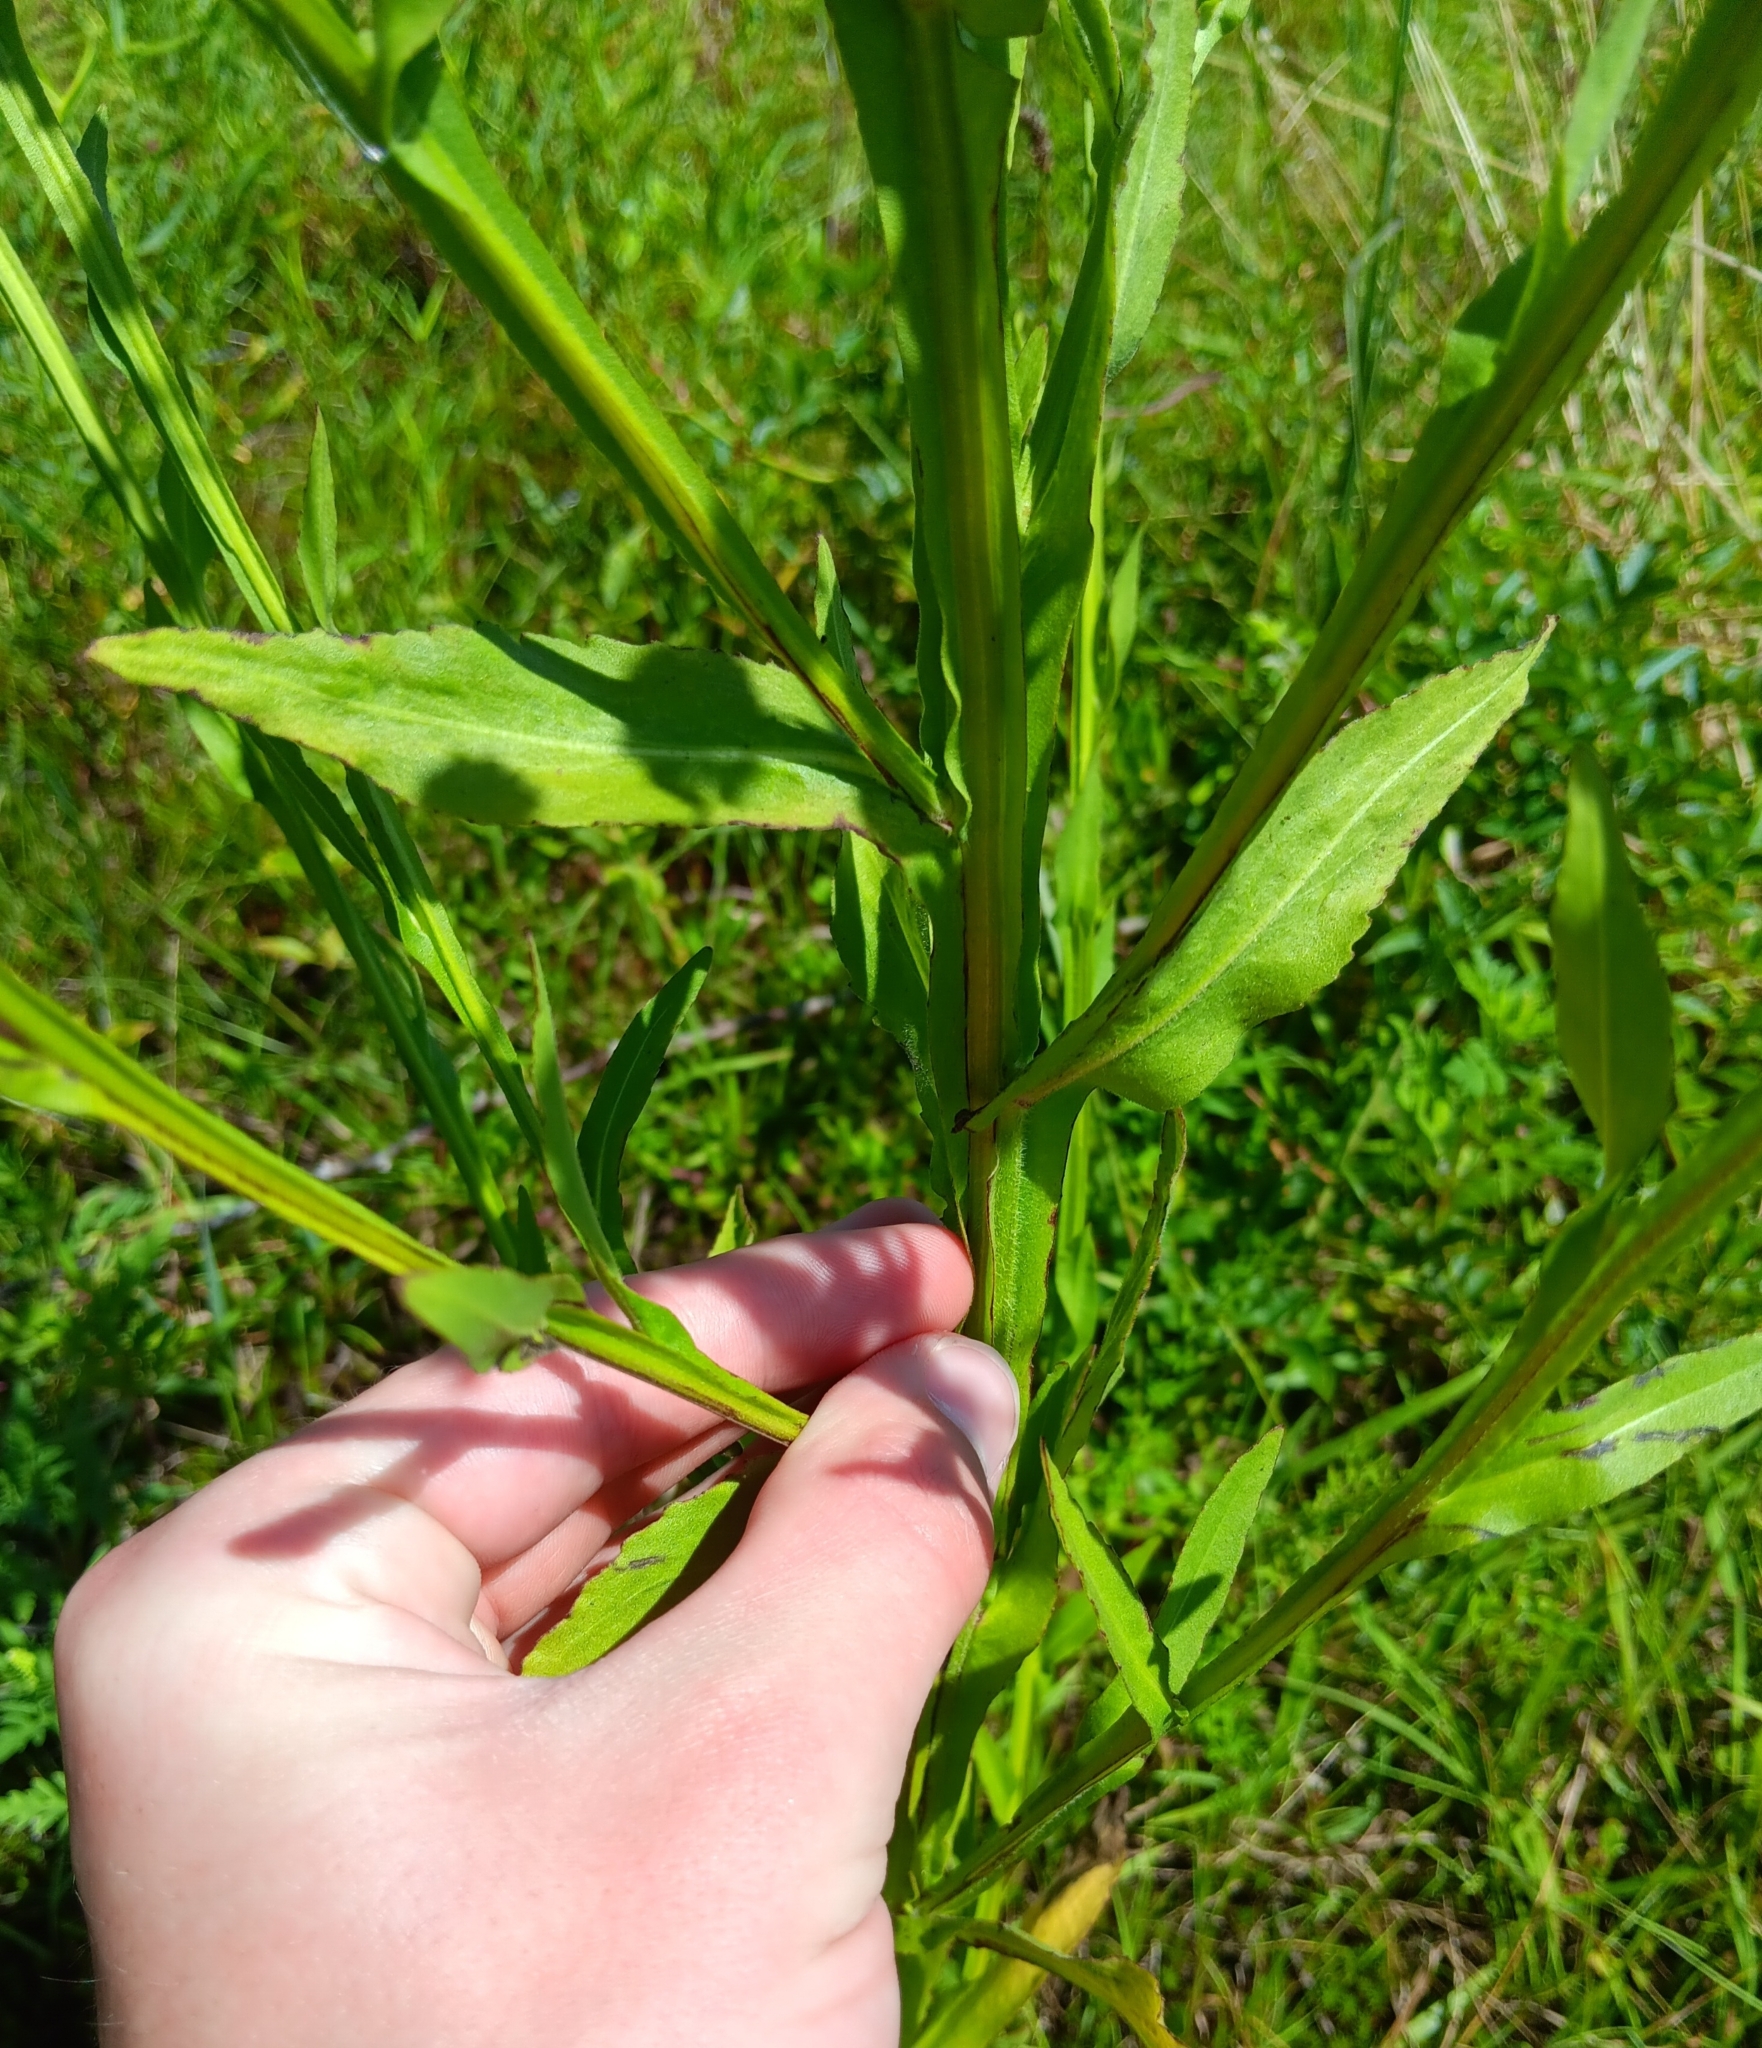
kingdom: Plantae
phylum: Tracheophyta
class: Magnoliopsida
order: Asterales
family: Asteraceae
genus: Helenium
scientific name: Helenium flexuosum
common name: Naked-flowered sneezeweed
